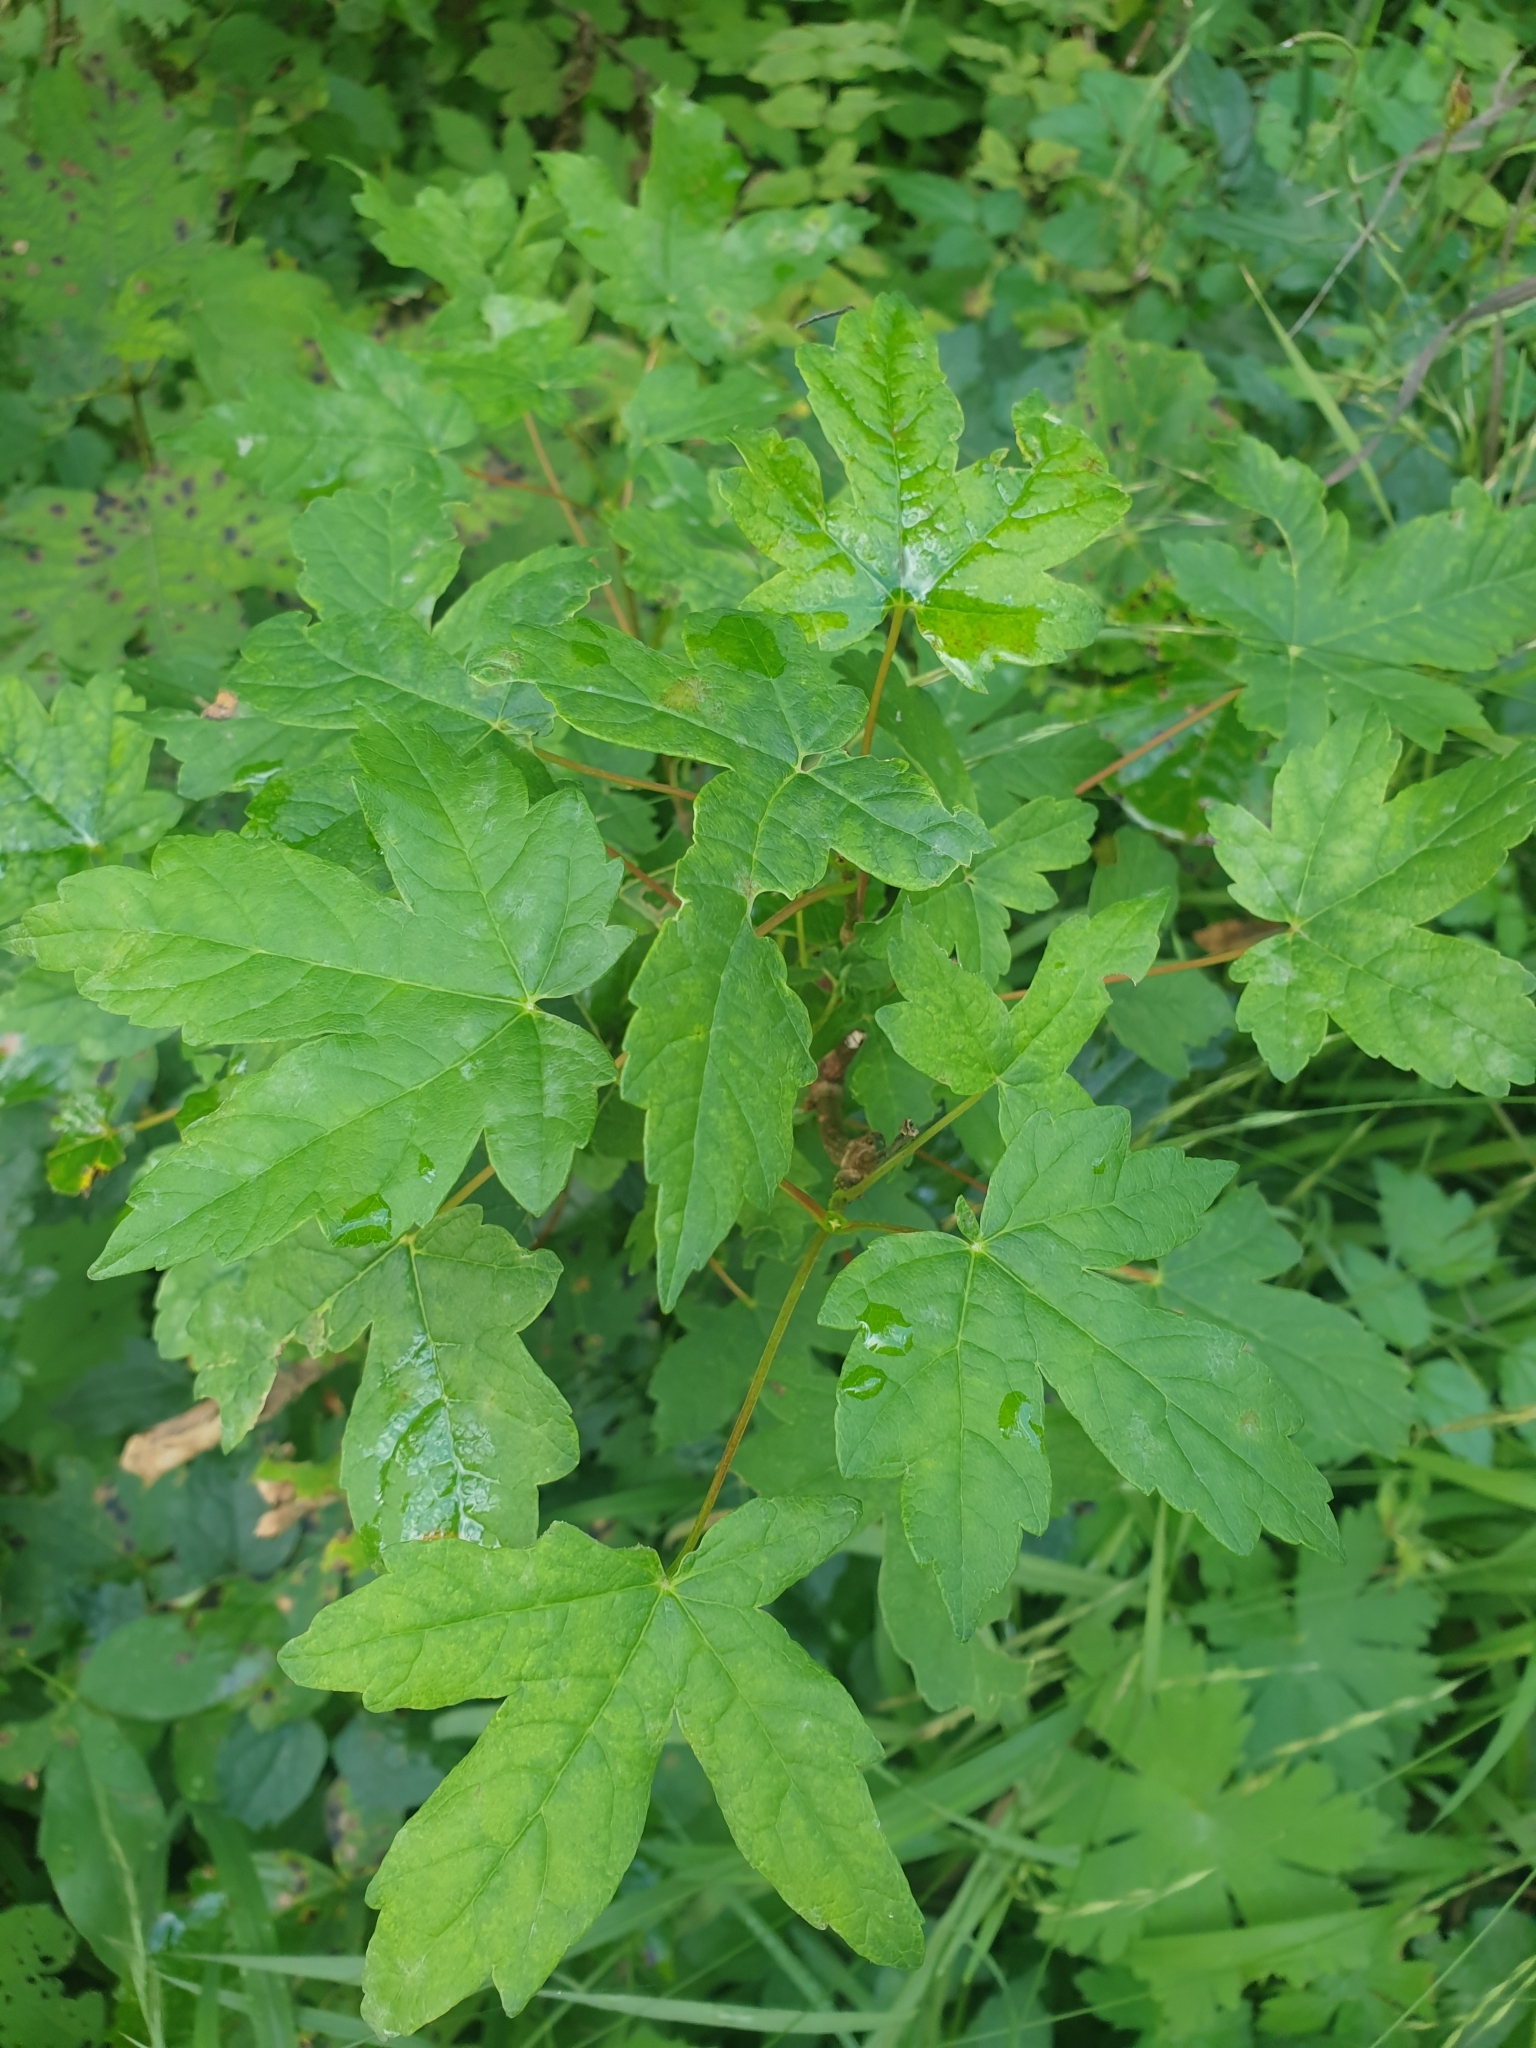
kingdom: Plantae
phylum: Tracheophyta
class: Magnoliopsida
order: Sapindales
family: Sapindaceae
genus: Acer
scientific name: Acer campestre
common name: Field maple
